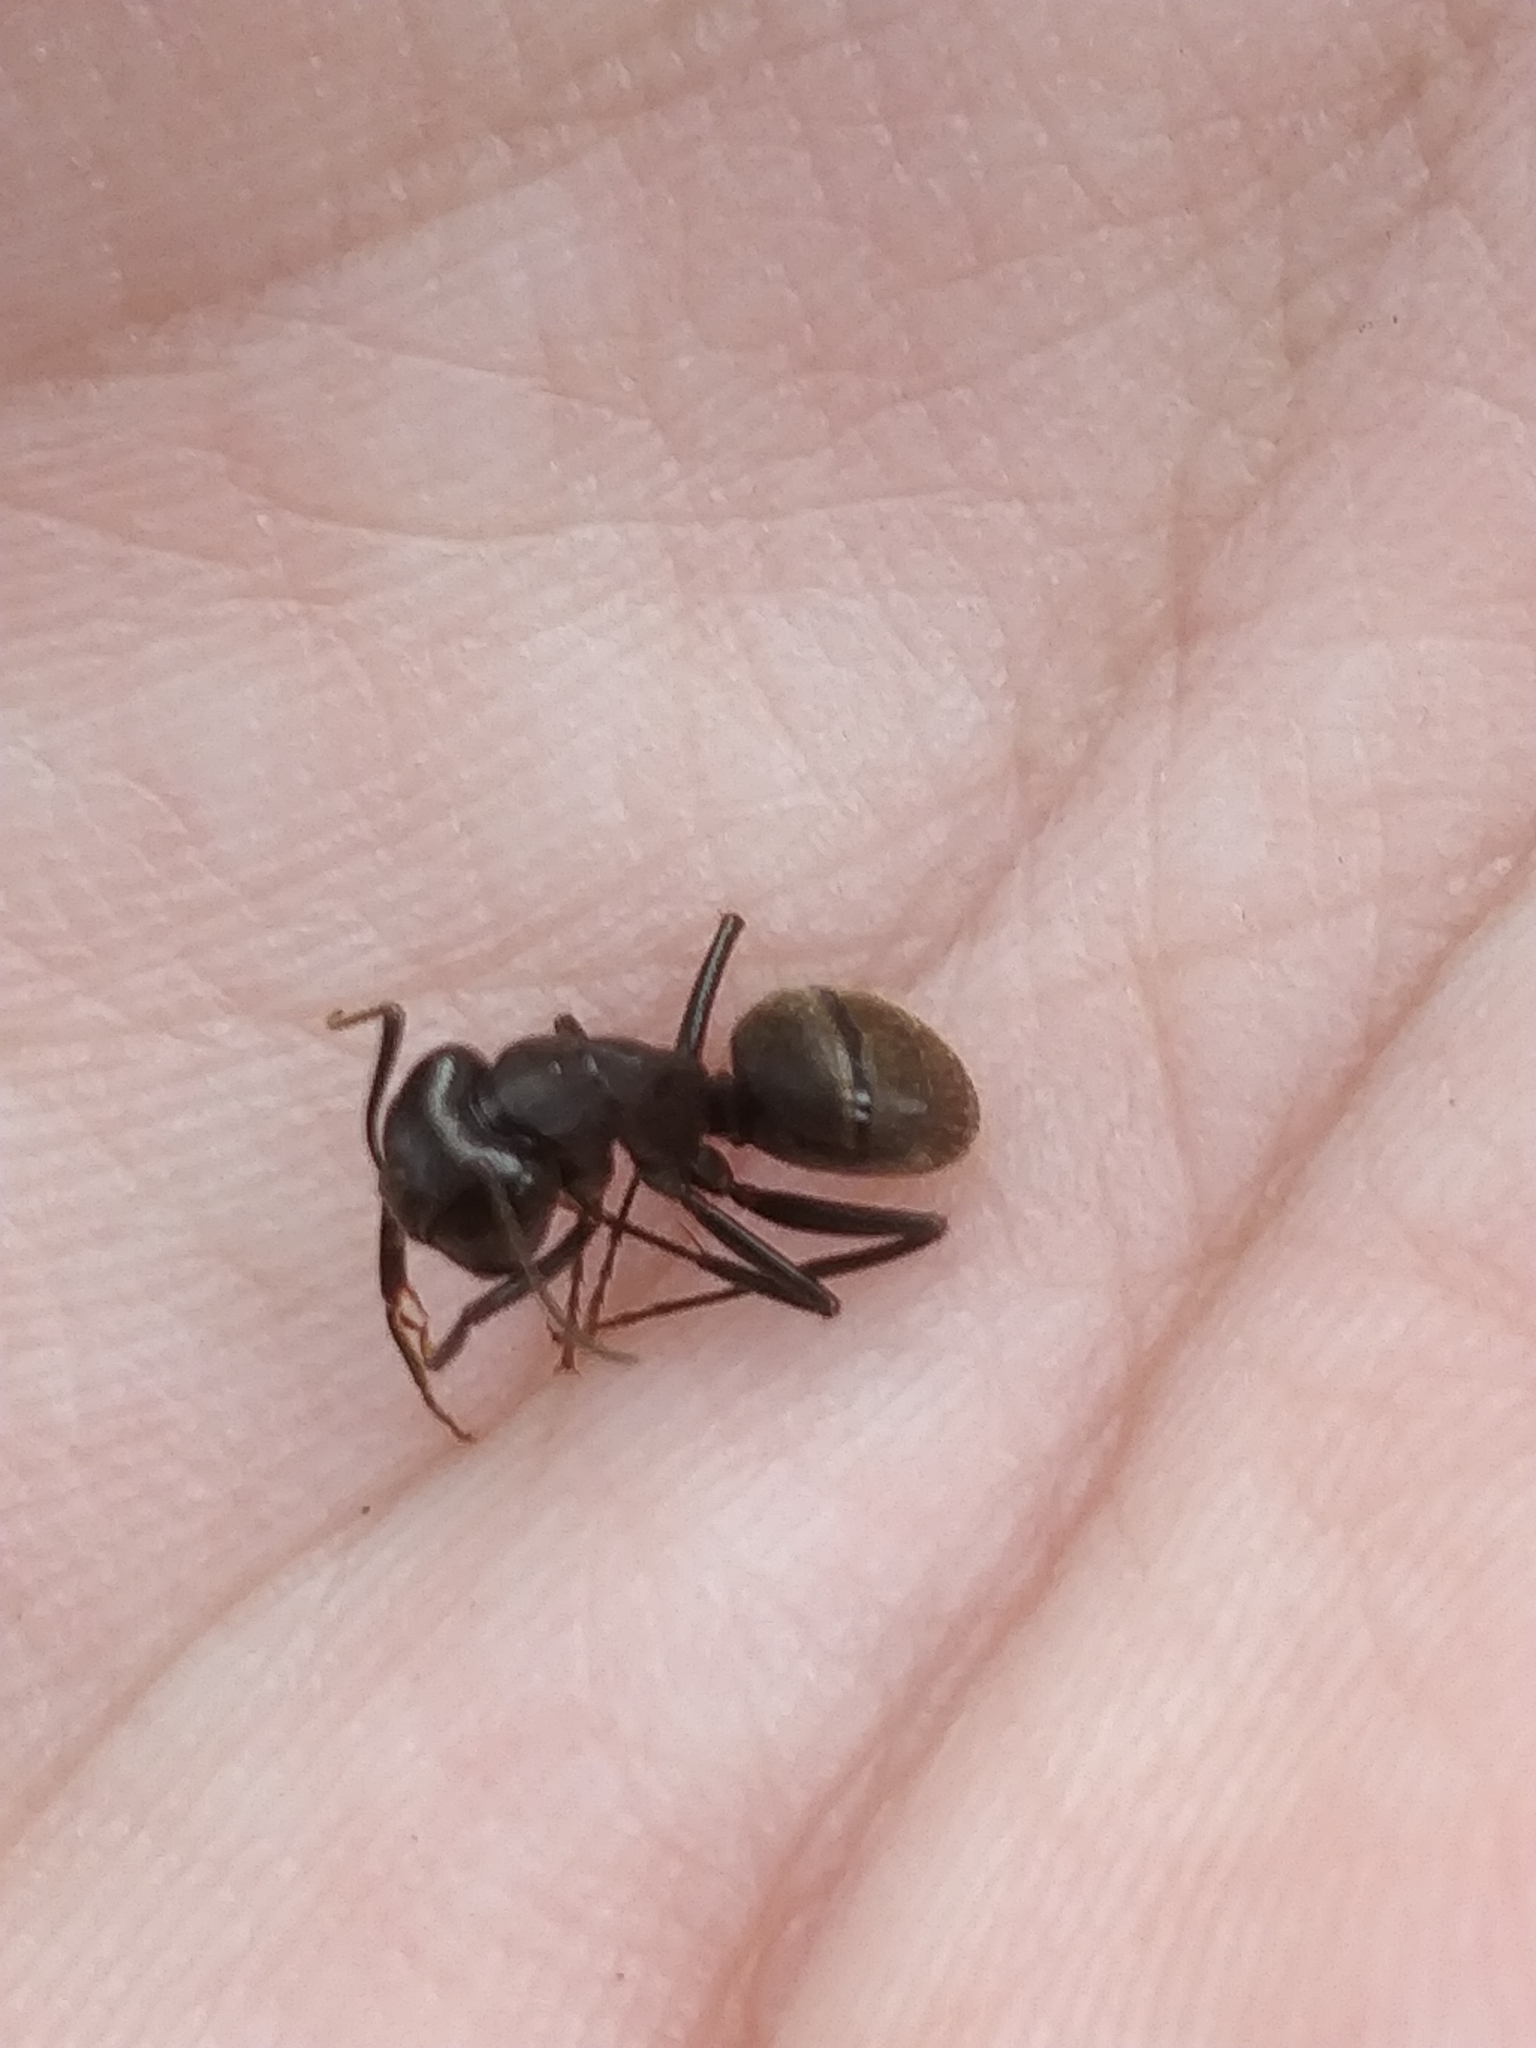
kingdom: Animalia
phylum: Arthropoda
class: Insecta
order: Hymenoptera
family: Formicidae
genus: Camponotus
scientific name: Camponotus pennsylvanicus
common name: Black carpenter ant
